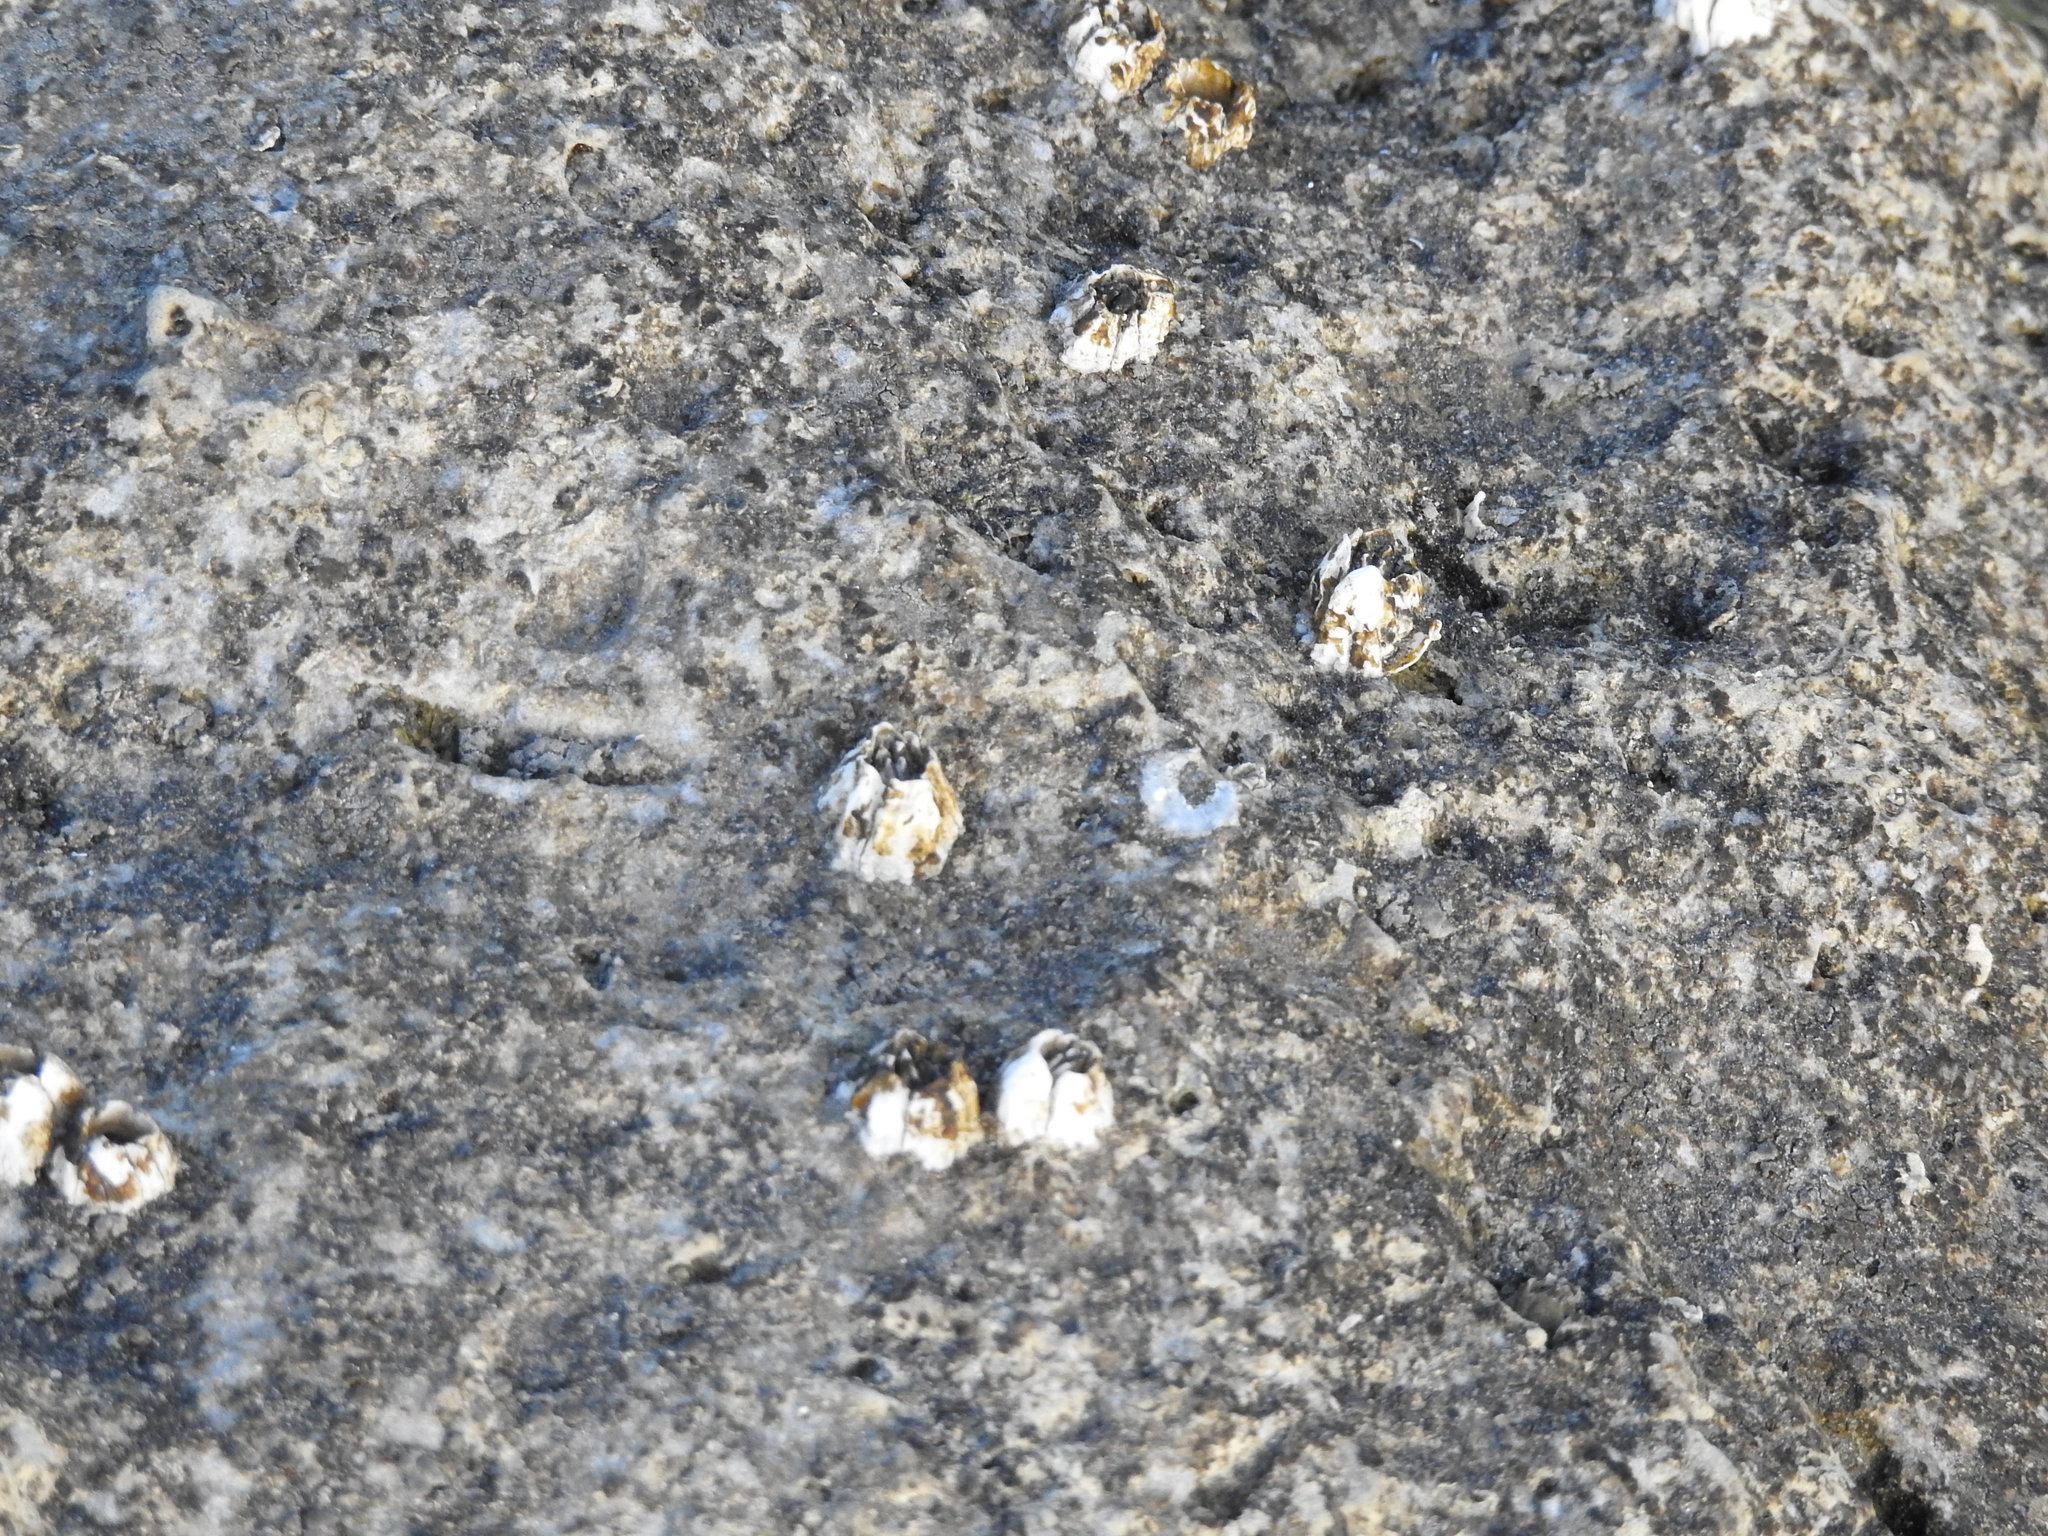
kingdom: Animalia
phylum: Arthropoda
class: Maxillopoda
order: Sessilia
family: Balanidae
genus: Balanus
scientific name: Balanus glandula
